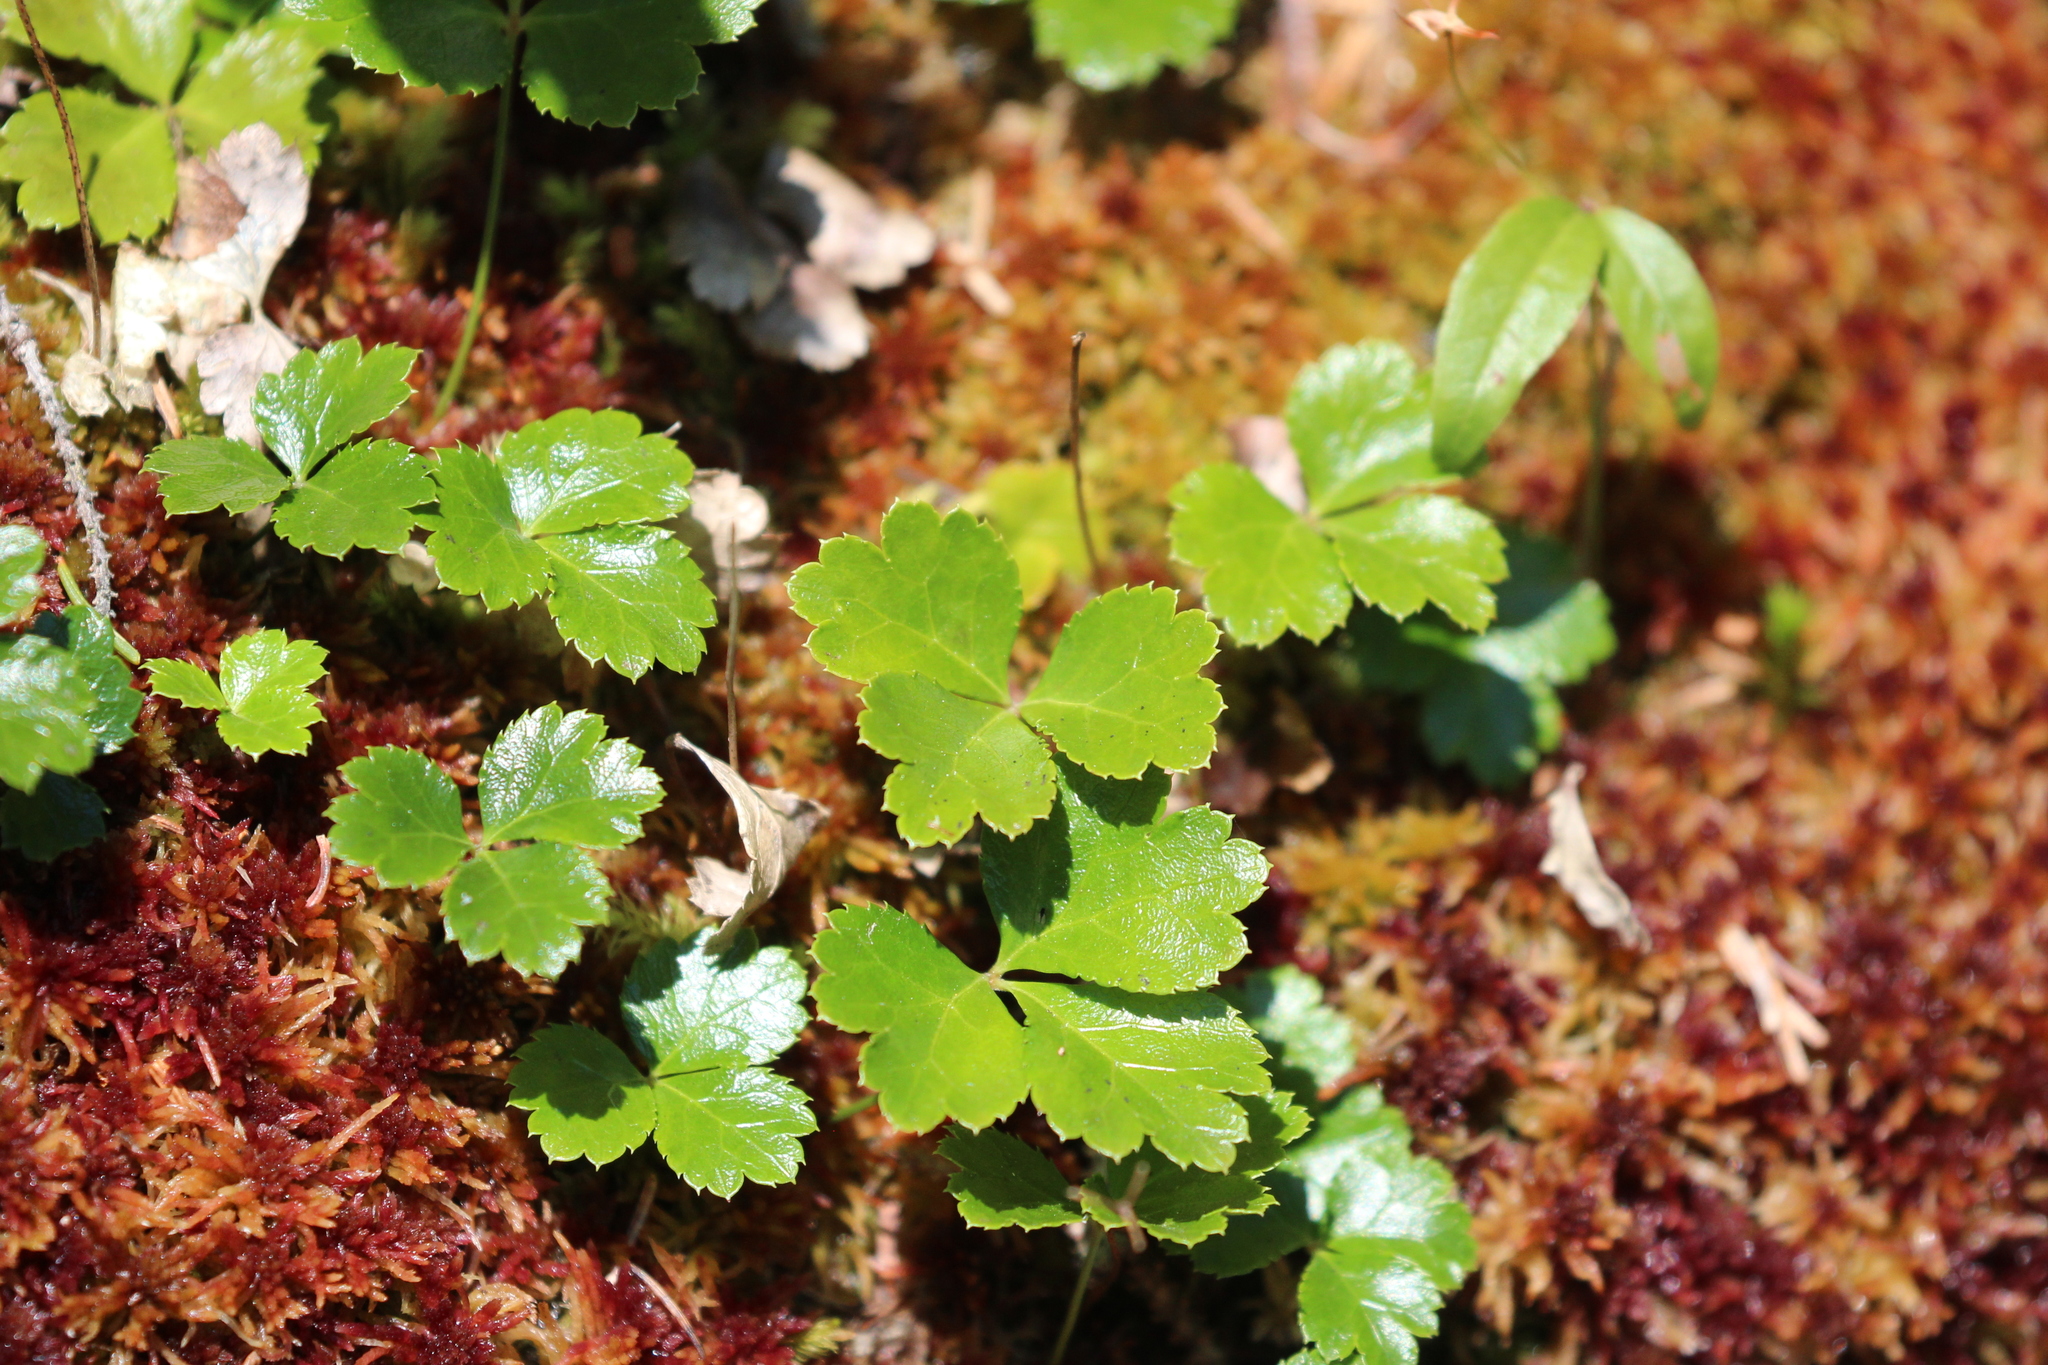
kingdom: Plantae
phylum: Tracheophyta
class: Magnoliopsida
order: Ranunculales
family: Ranunculaceae
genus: Coptis
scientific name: Coptis trifolia
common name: Canker-root
